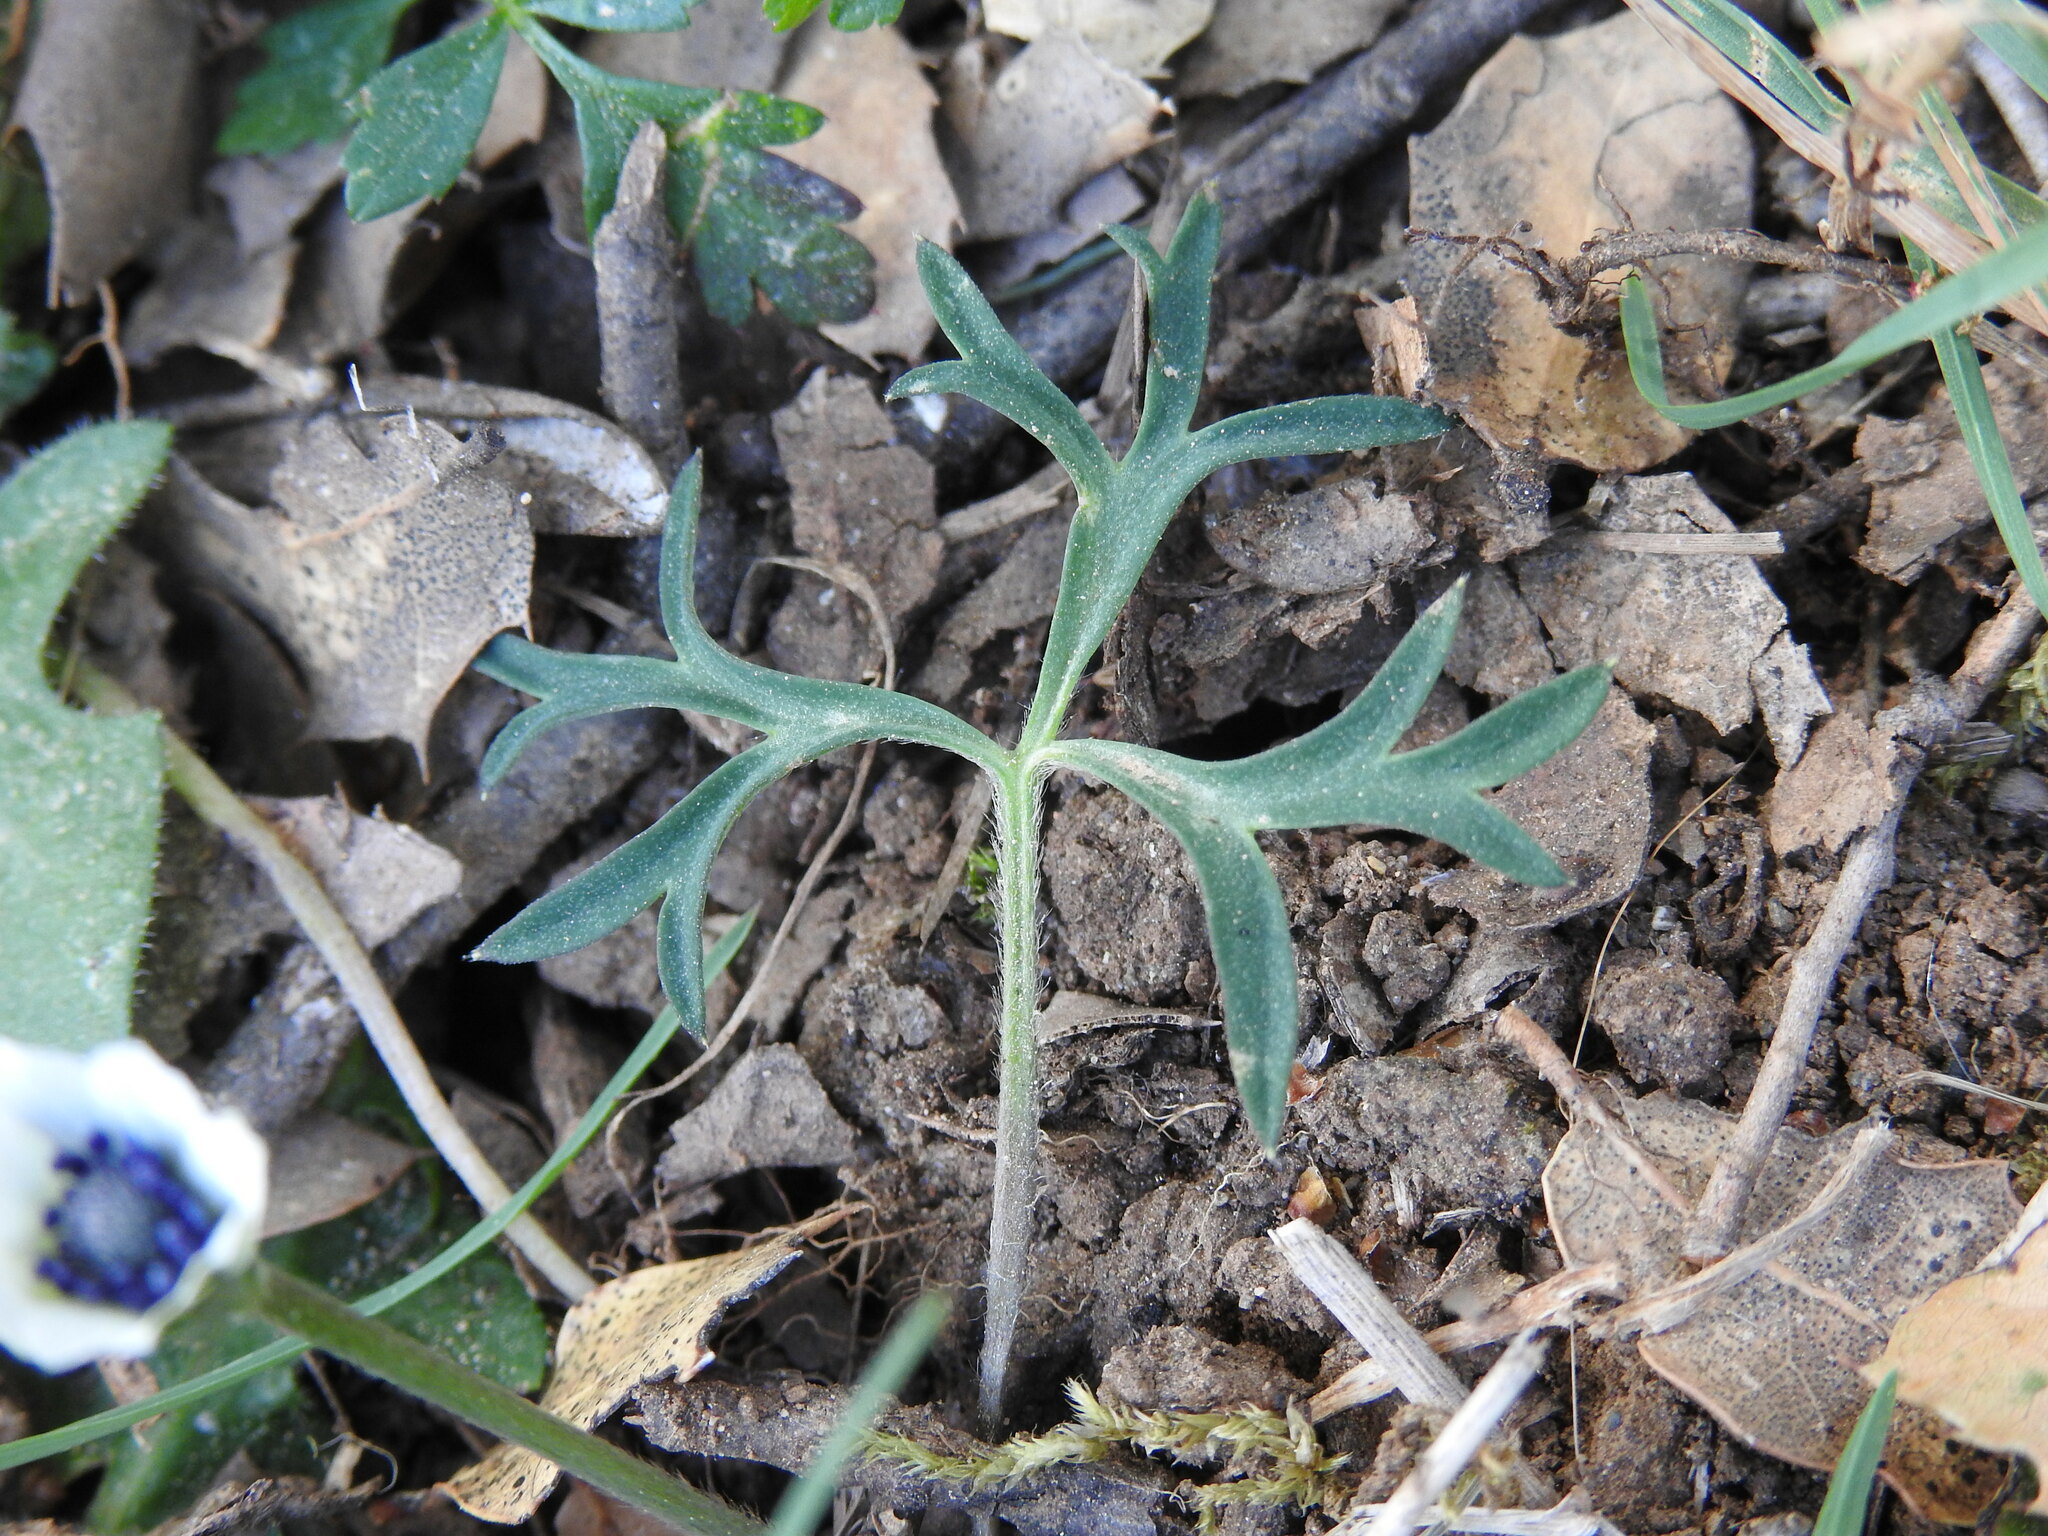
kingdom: Plantae
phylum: Tracheophyta
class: Magnoliopsida
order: Ranunculales
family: Ranunculaceae
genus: Anemone
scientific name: Anemone hortensis
